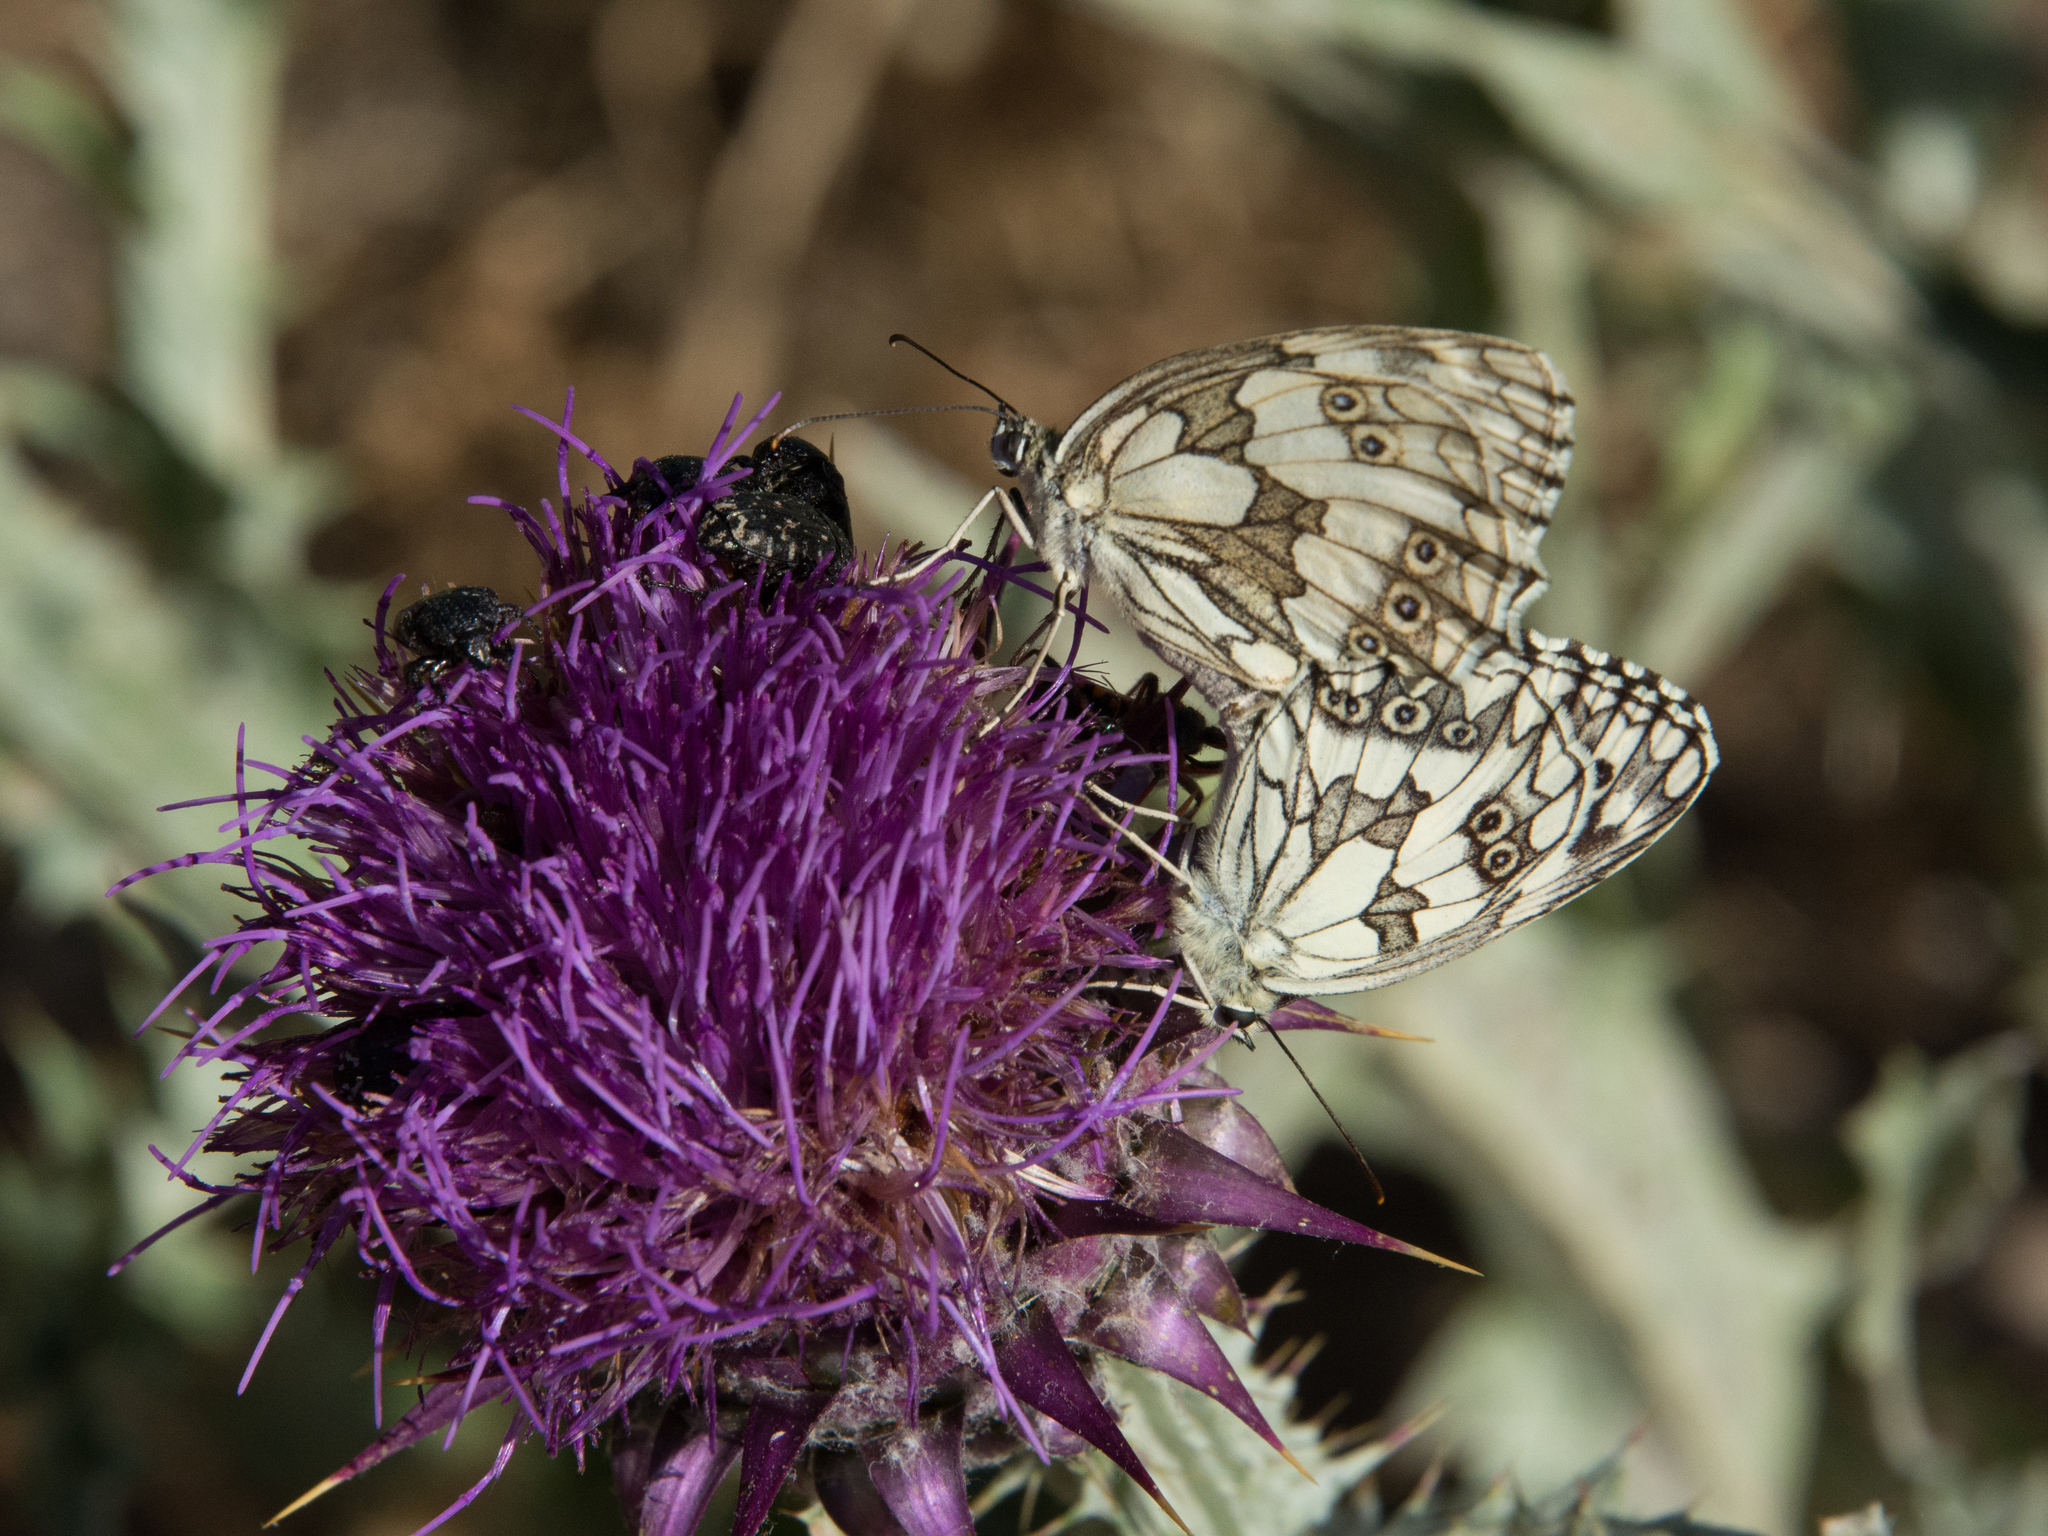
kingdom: Animalia
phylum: Arthropoda
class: Insecta
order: Lepidoptera
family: Nymphalidae
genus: Melanargia
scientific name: Melanargia galathea
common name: Marbled white
